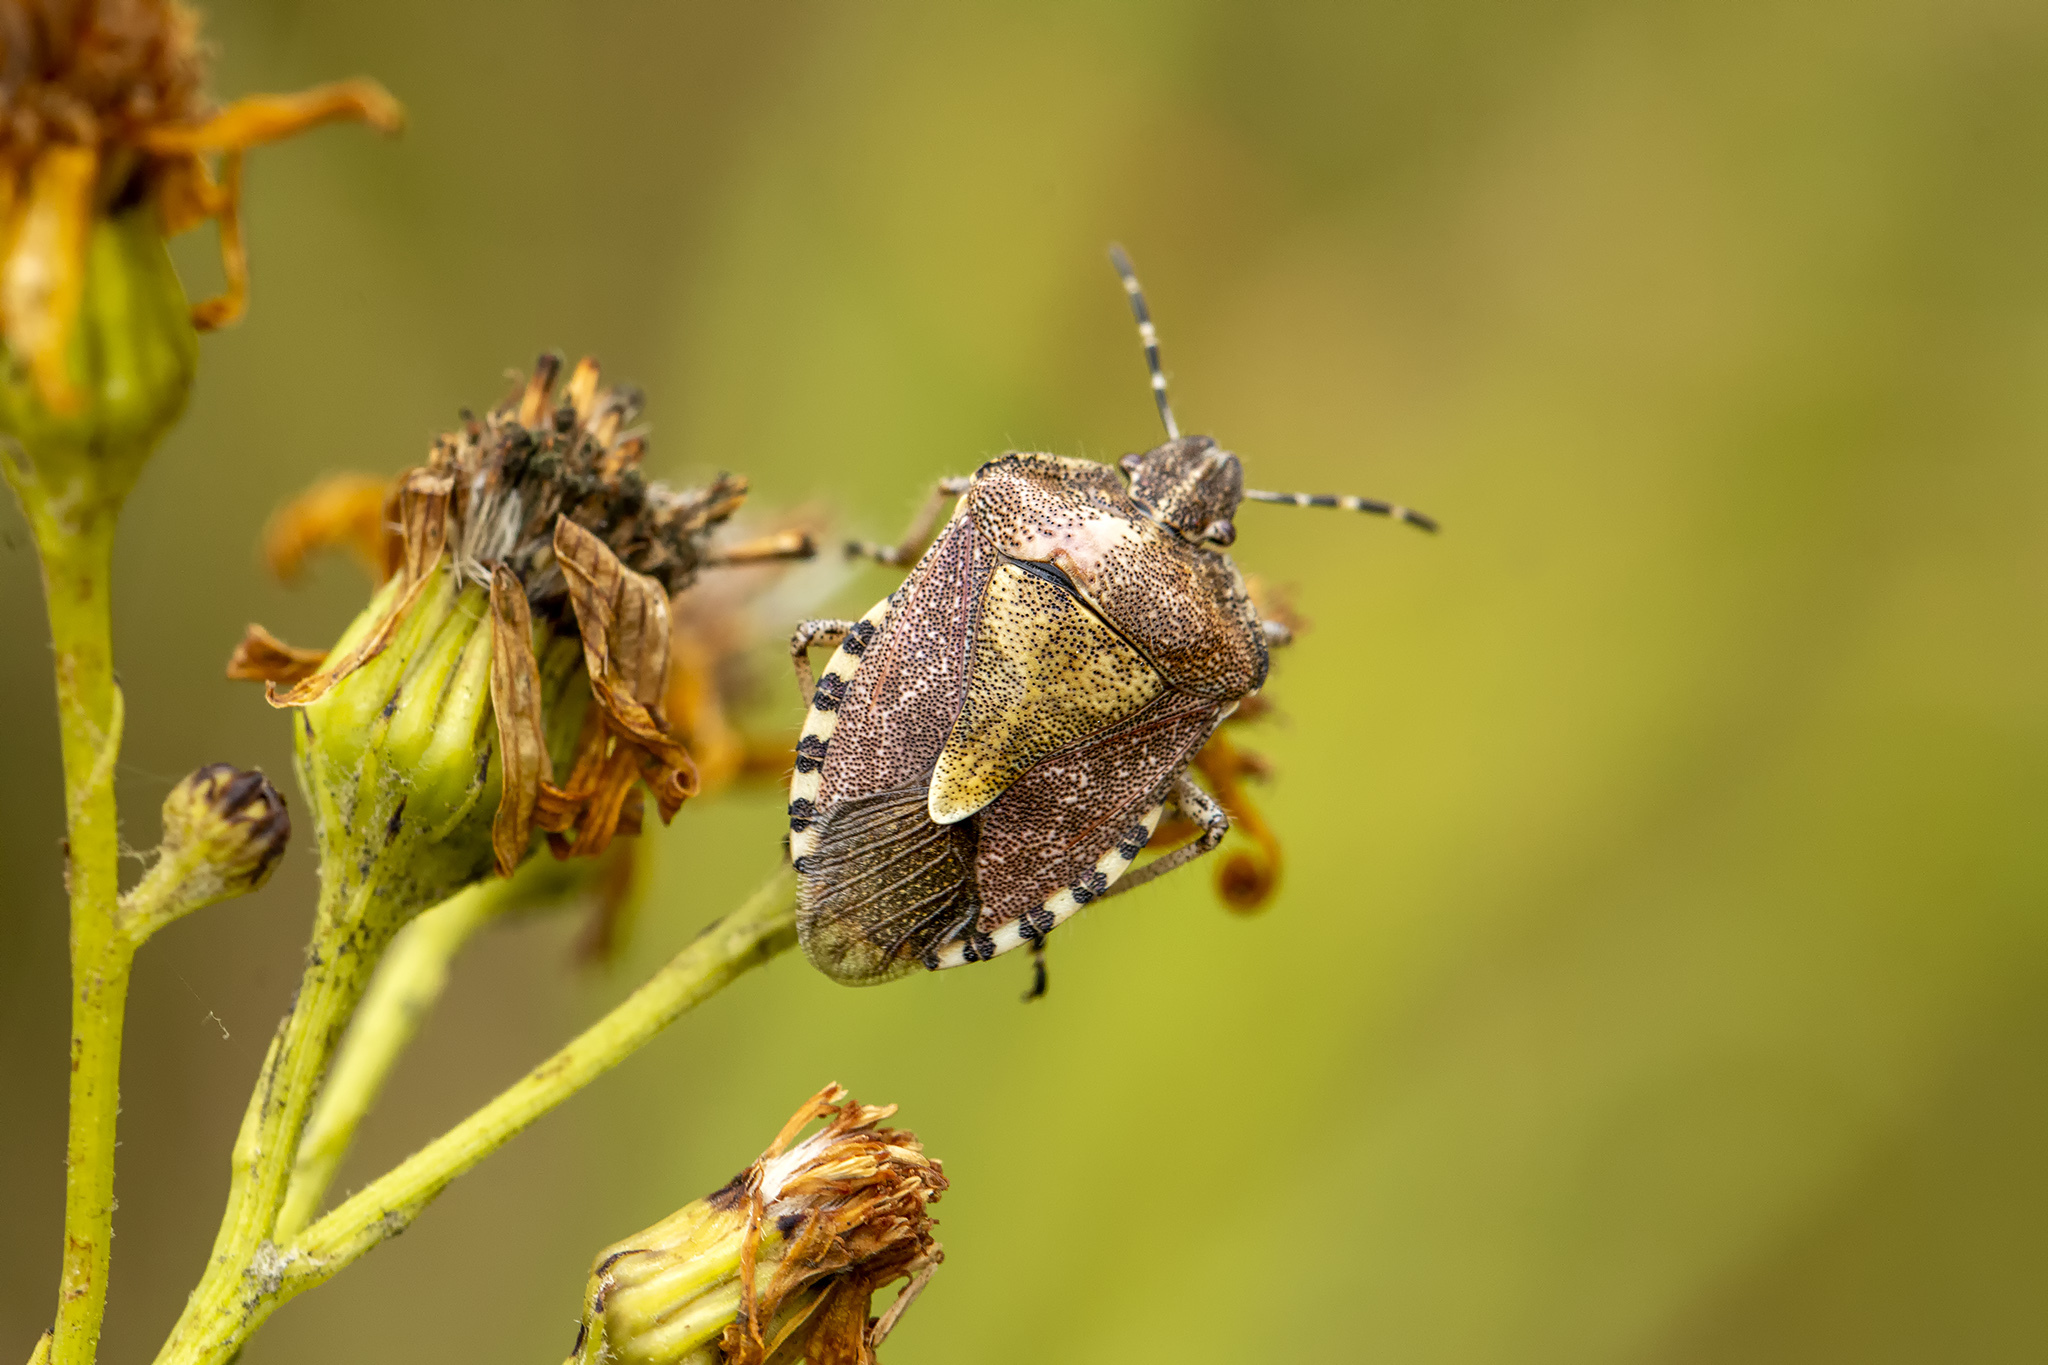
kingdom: Animalia
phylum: Arthropoda
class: Insecta
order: Hemiptera
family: Pentatomidae
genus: Dolycoris
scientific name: Dolycoris baccarum
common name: Sloe bug
